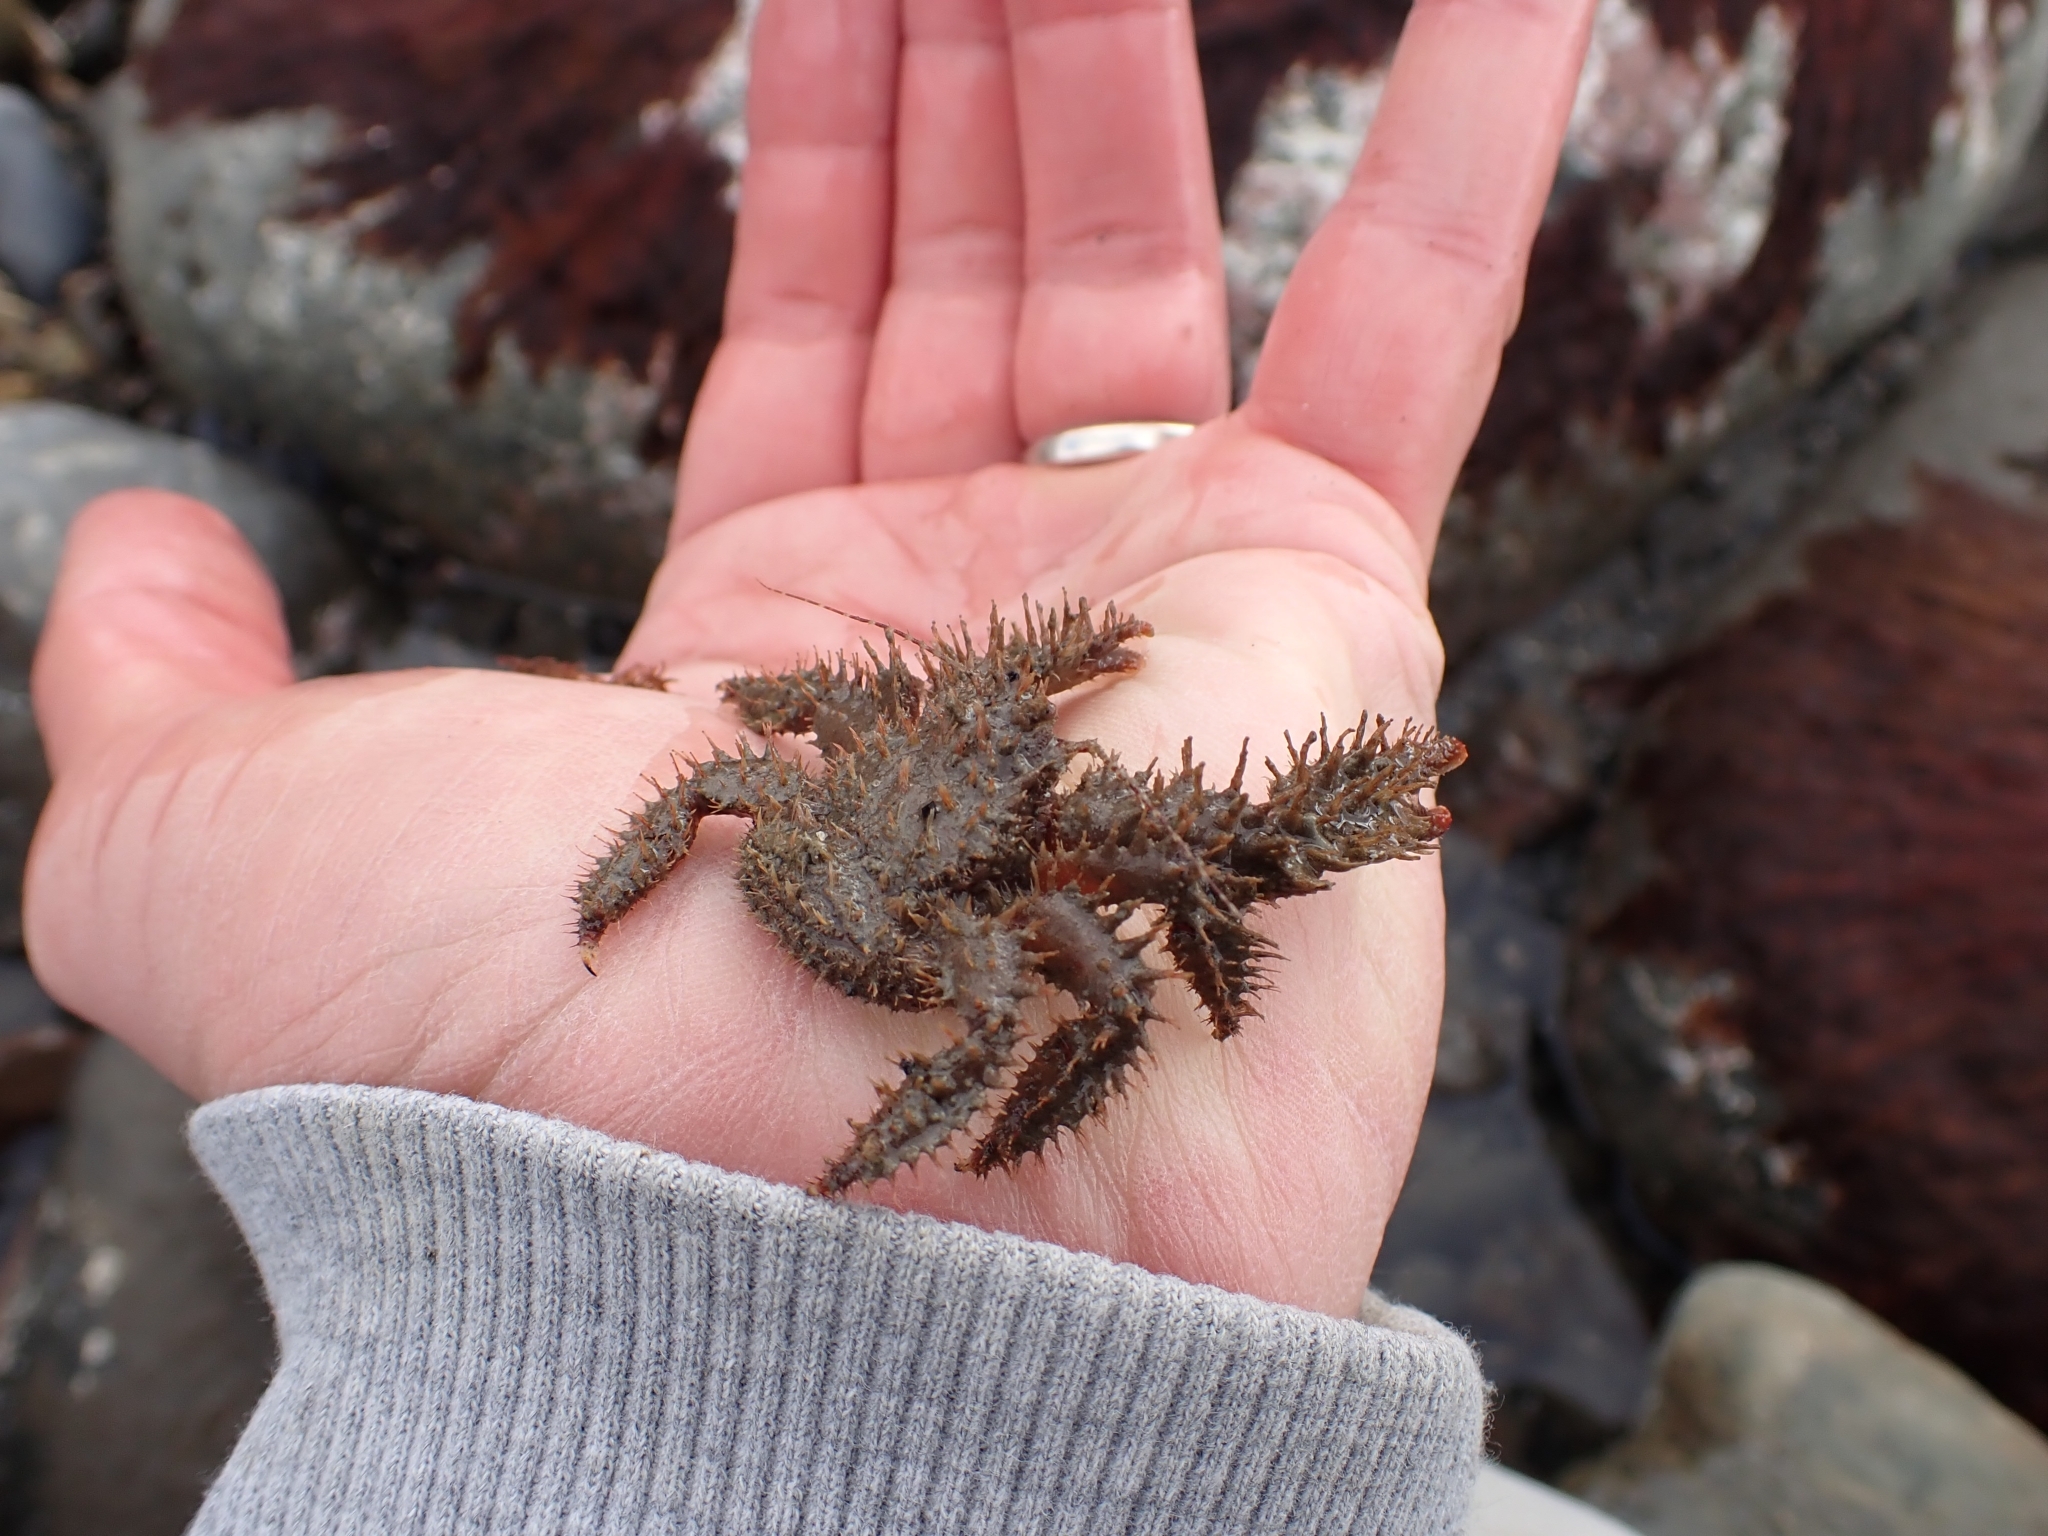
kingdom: Animalia
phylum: Arthropoda
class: Malacostraca
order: Decapoda
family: Hapalogastridae
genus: Hapalogaster
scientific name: Hapalogaster mertensii
